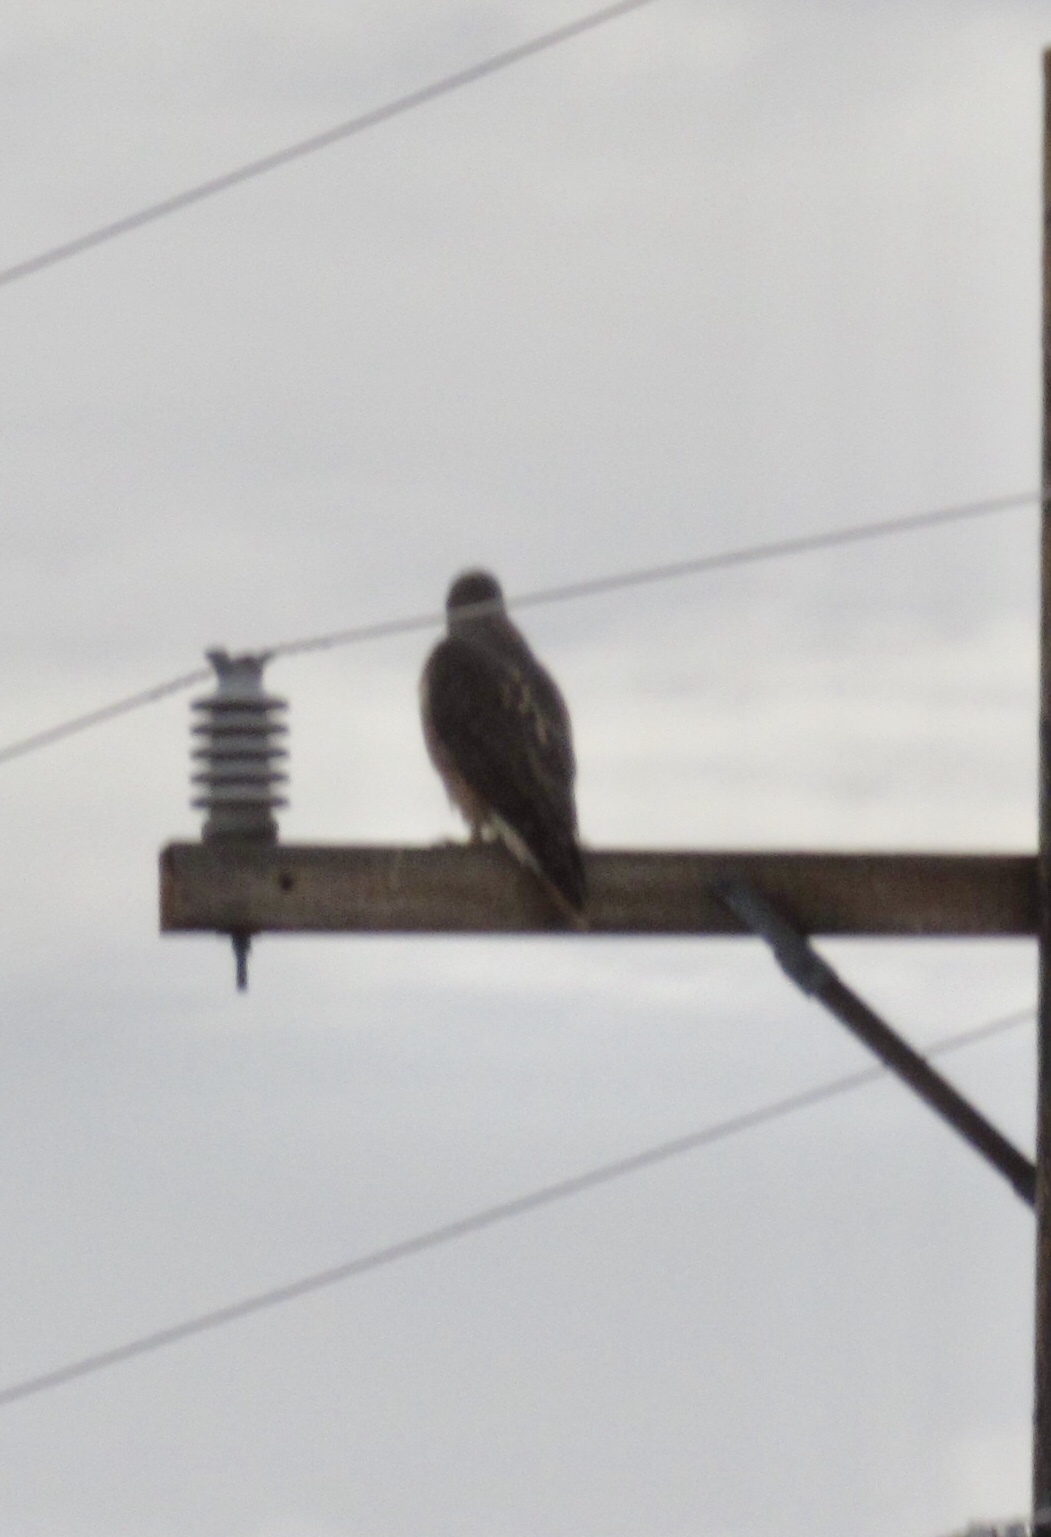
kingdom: Animalia
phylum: Chordata
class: Aves
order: Accipitriformes
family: Accipitridae
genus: Buteo
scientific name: Buteo jamaicensis
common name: Red-tailed hawk
